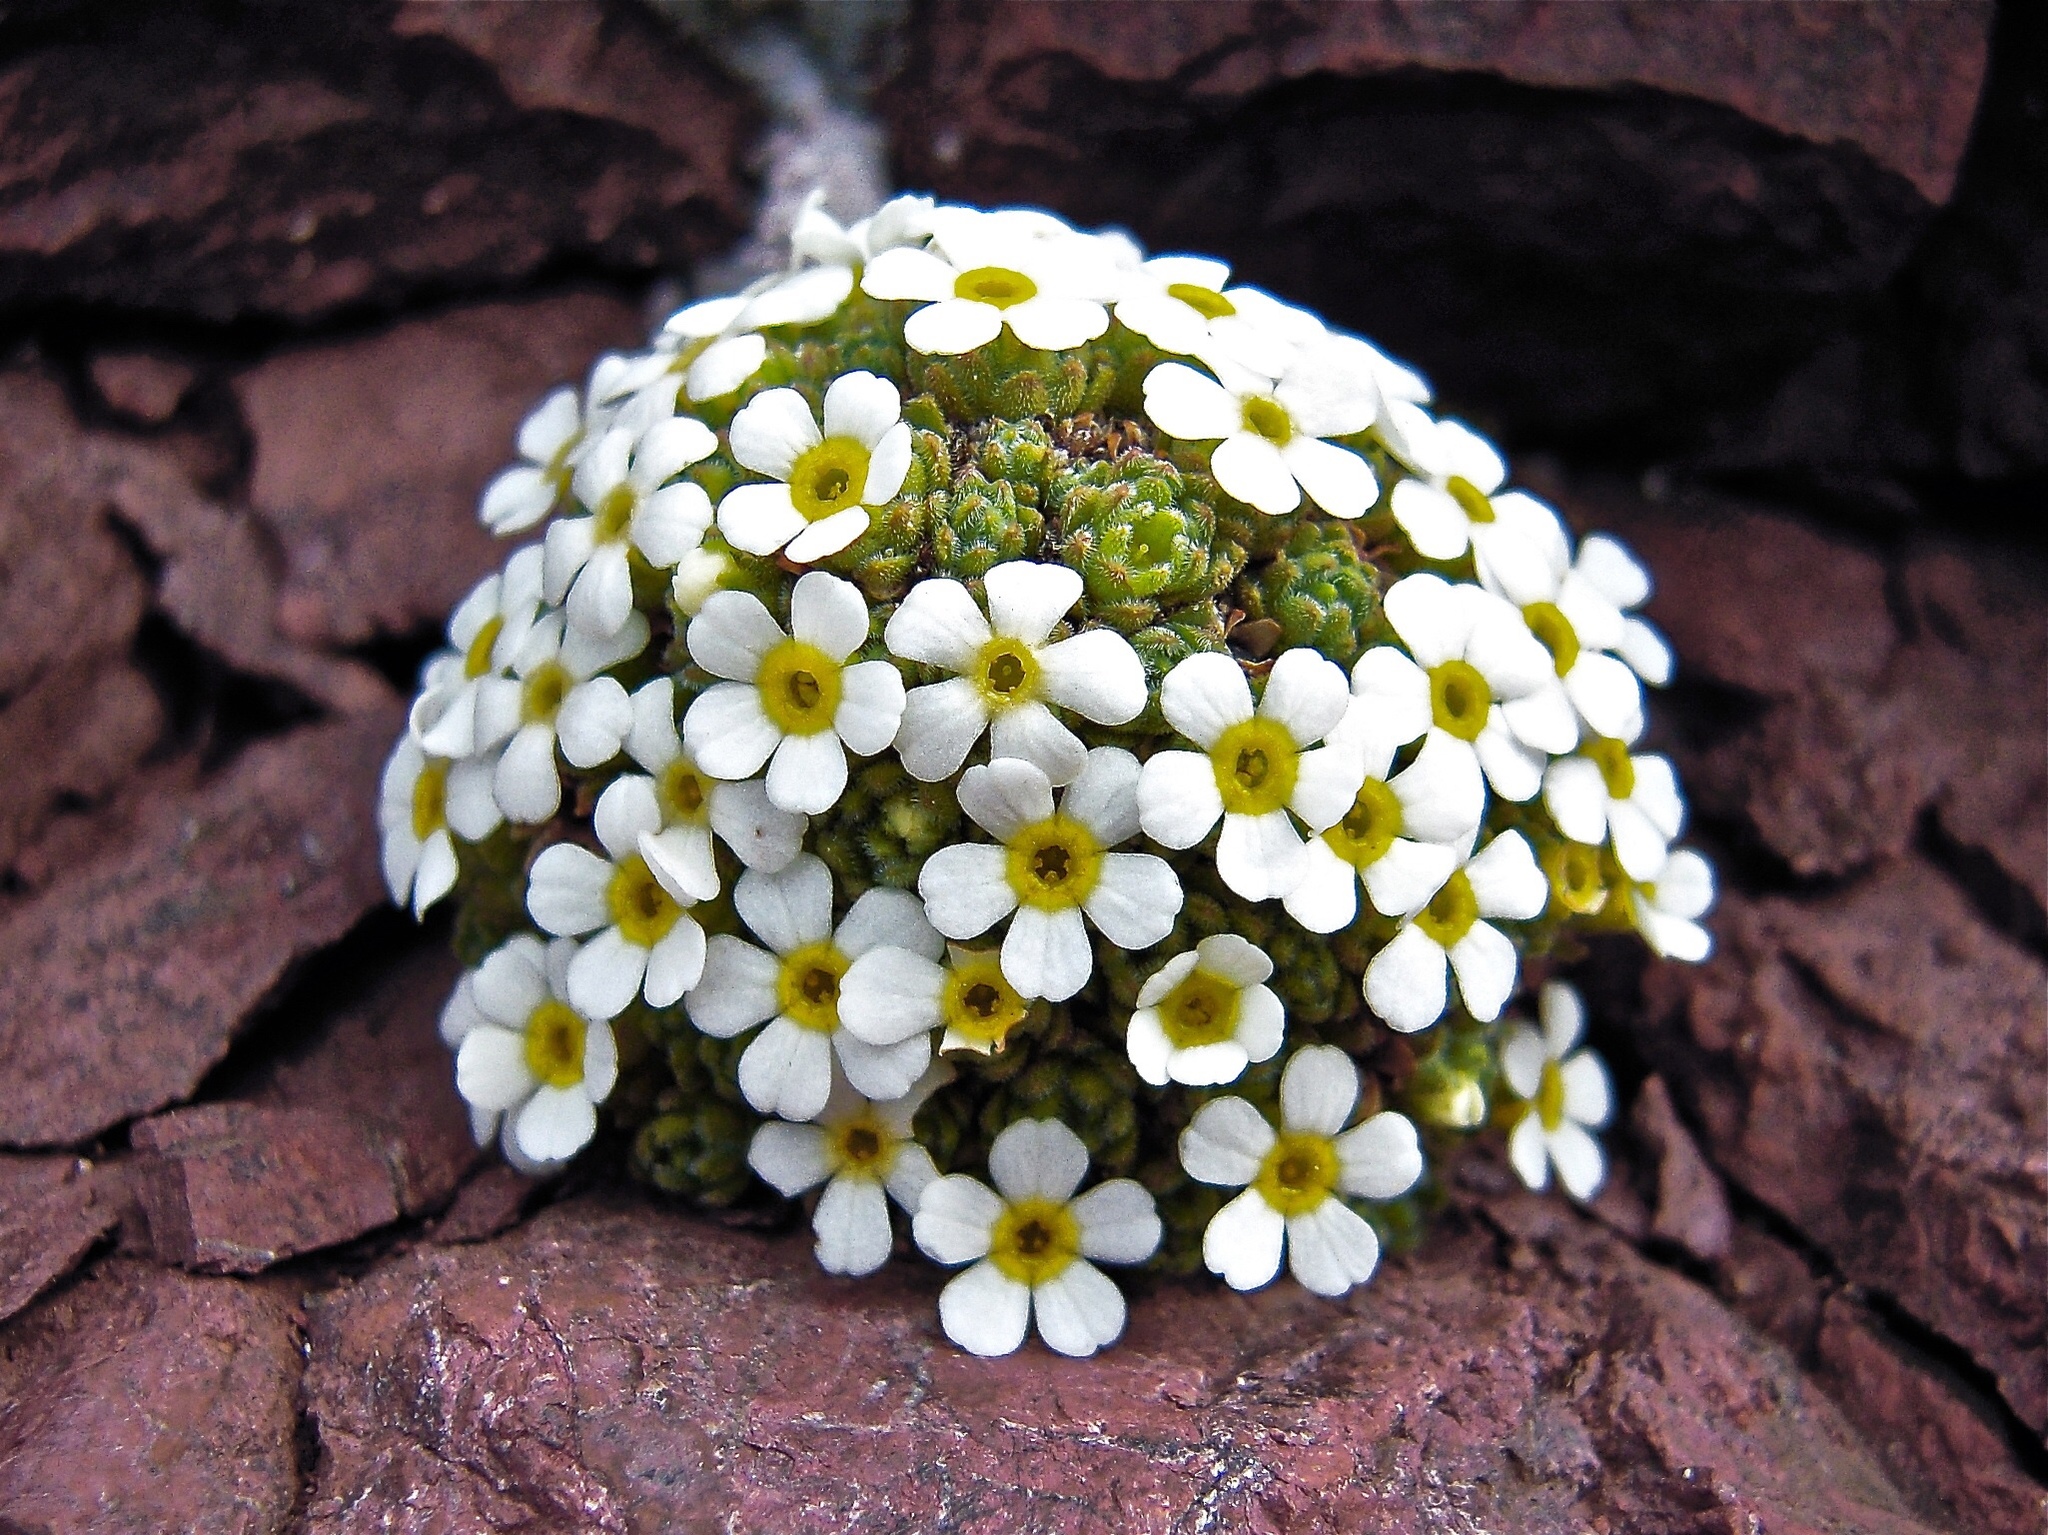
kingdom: Plantae
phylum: Tracheophyta
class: Magnoliopsida
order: Ericales
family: Primulaceae
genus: Androsace
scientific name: Androsace helvetica
